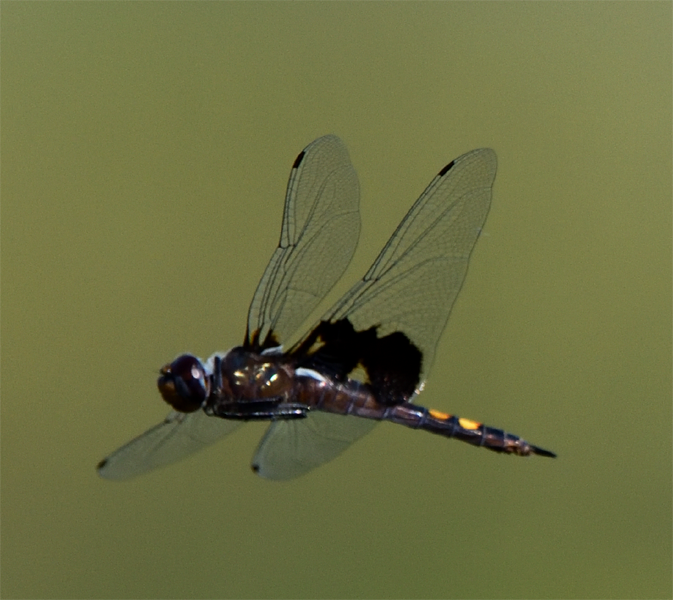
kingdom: Animalia
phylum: Arthropoda
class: Insecta
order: Odonata
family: Libellulidae
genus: Tramea
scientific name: Tramea lacerata
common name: Black saddlebags
